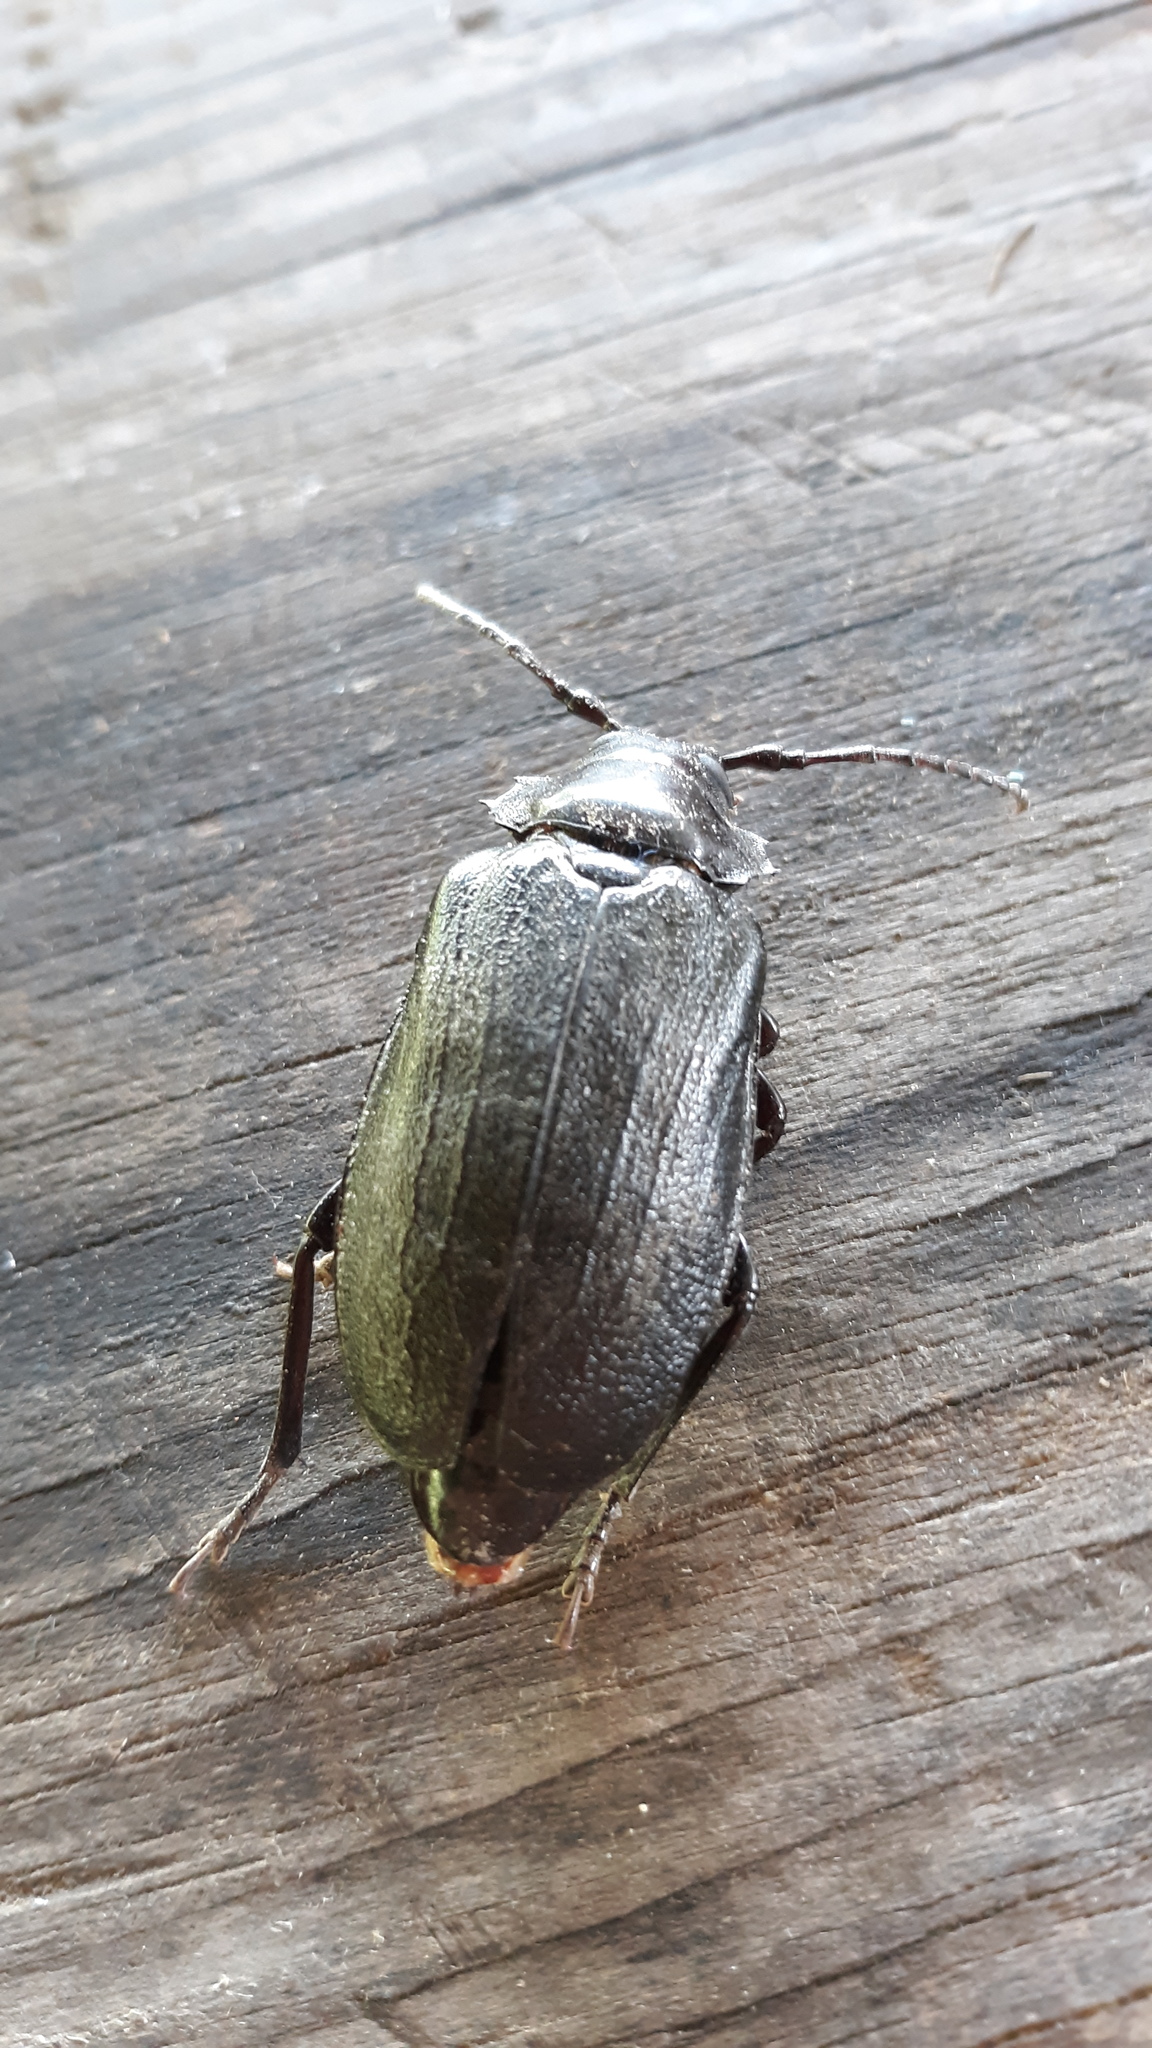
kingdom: Animalia
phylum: Arthropoda
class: Insecta
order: Coleoptera
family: Cerambycidae
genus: Prionus
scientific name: Prionus laticollis
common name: Broad necked prionus
